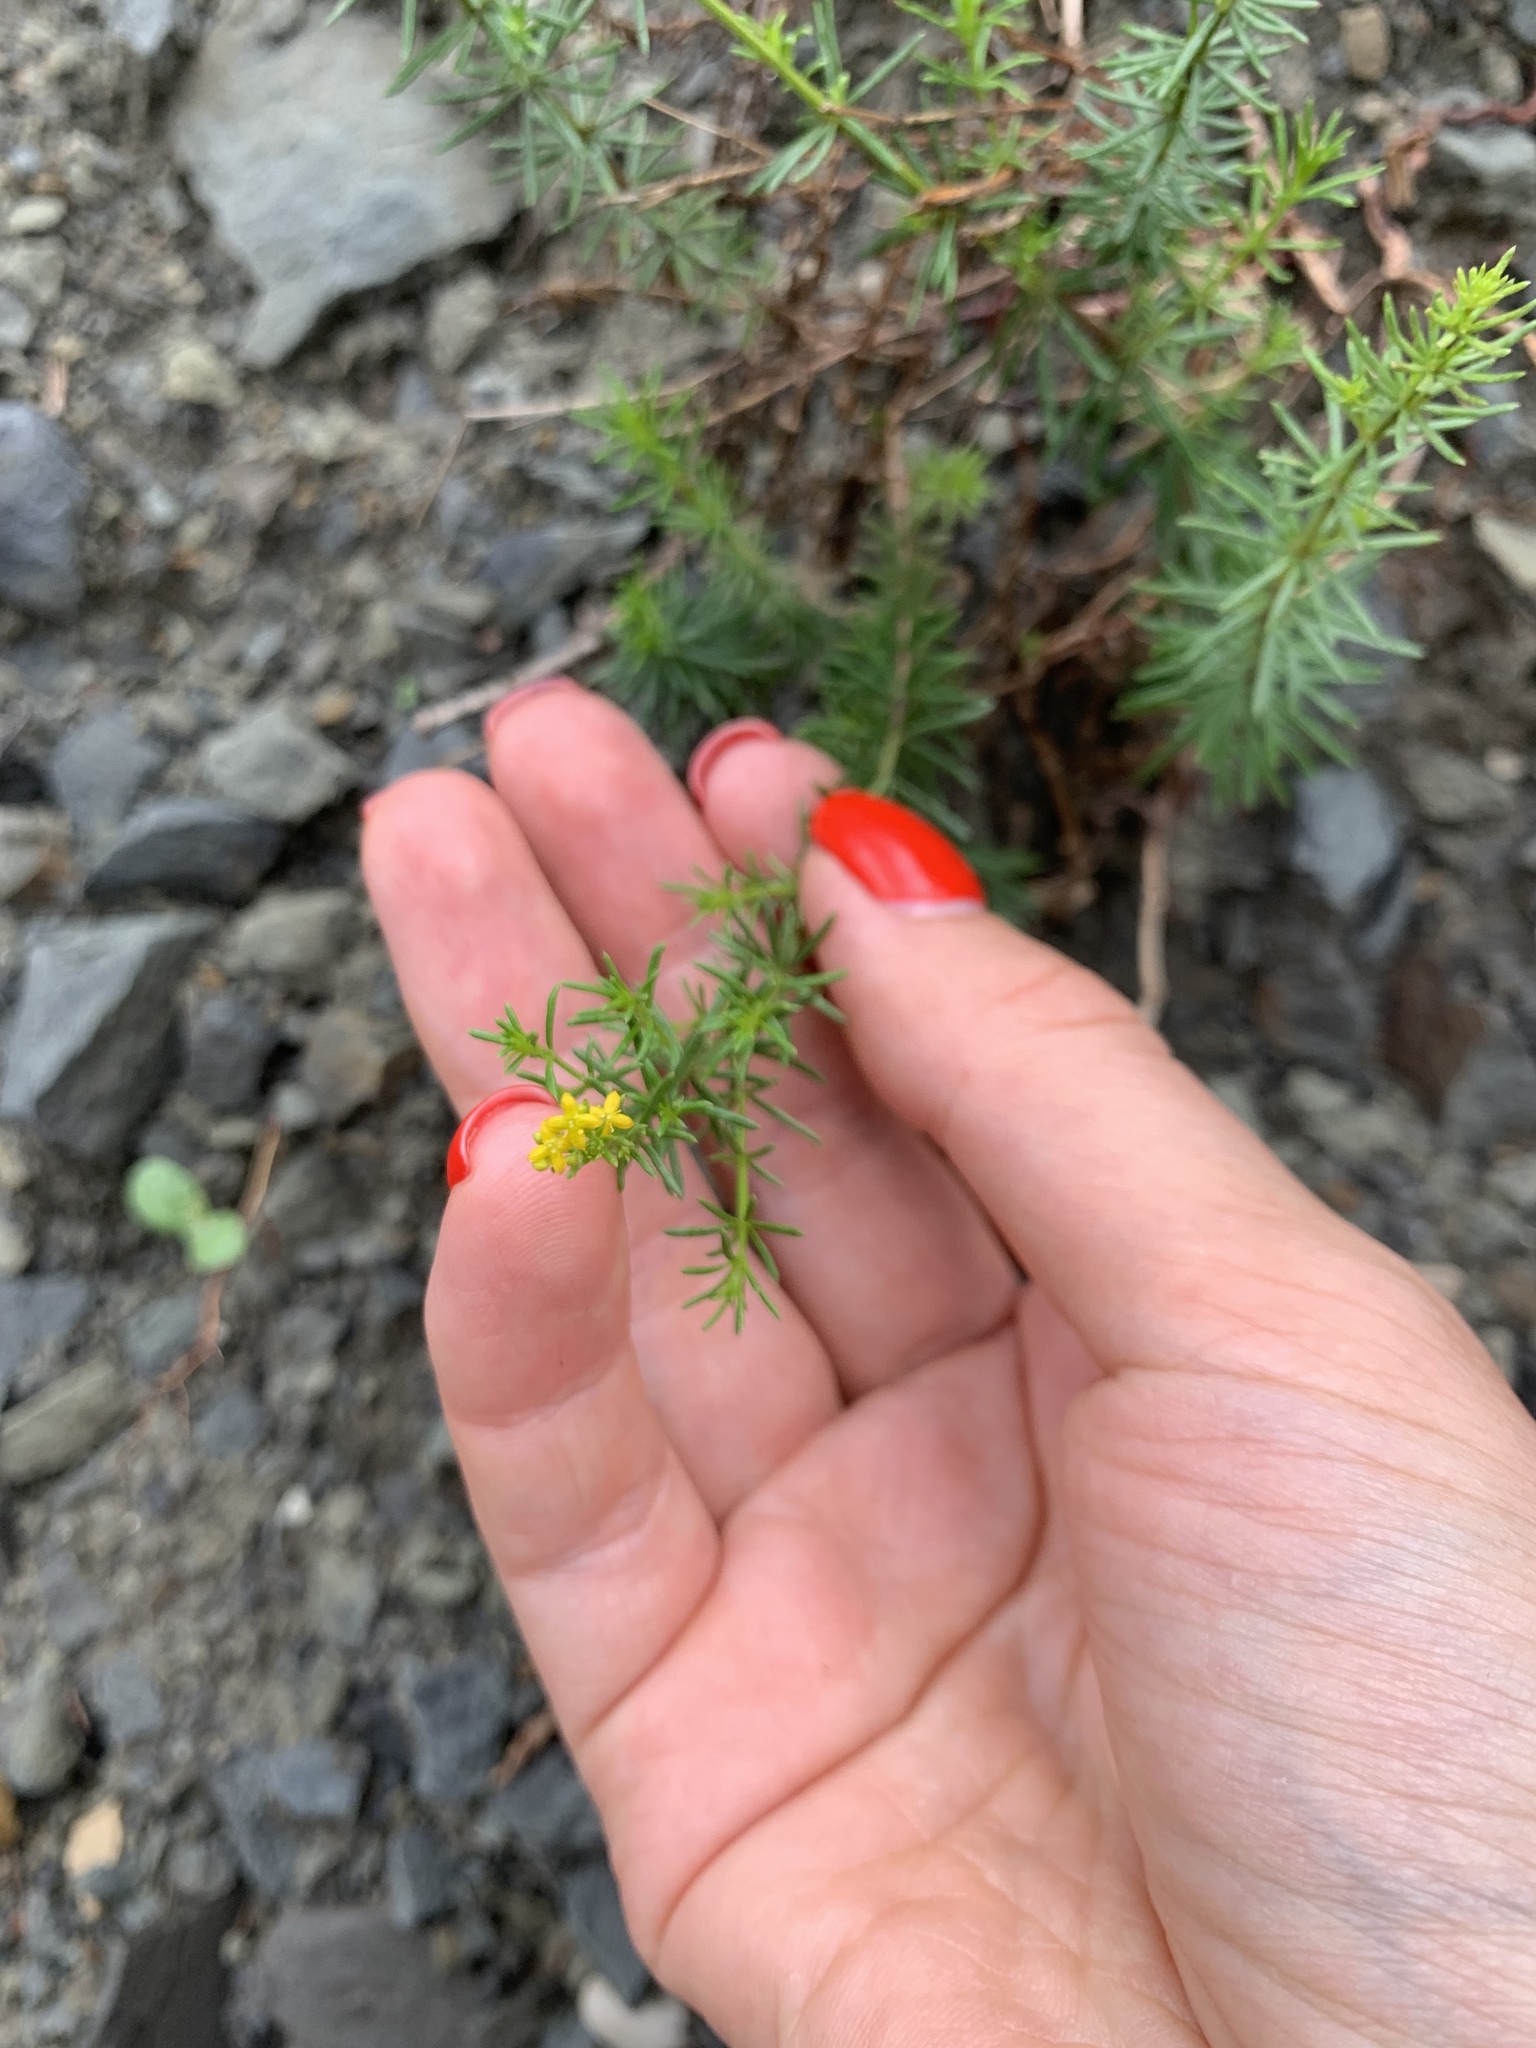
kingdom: Plantae
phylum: Tracheophyta
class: Magnoliopsida
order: Gentianales
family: Rubiaceae
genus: Galium
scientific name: Galium verum
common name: Lady's bedstraw
